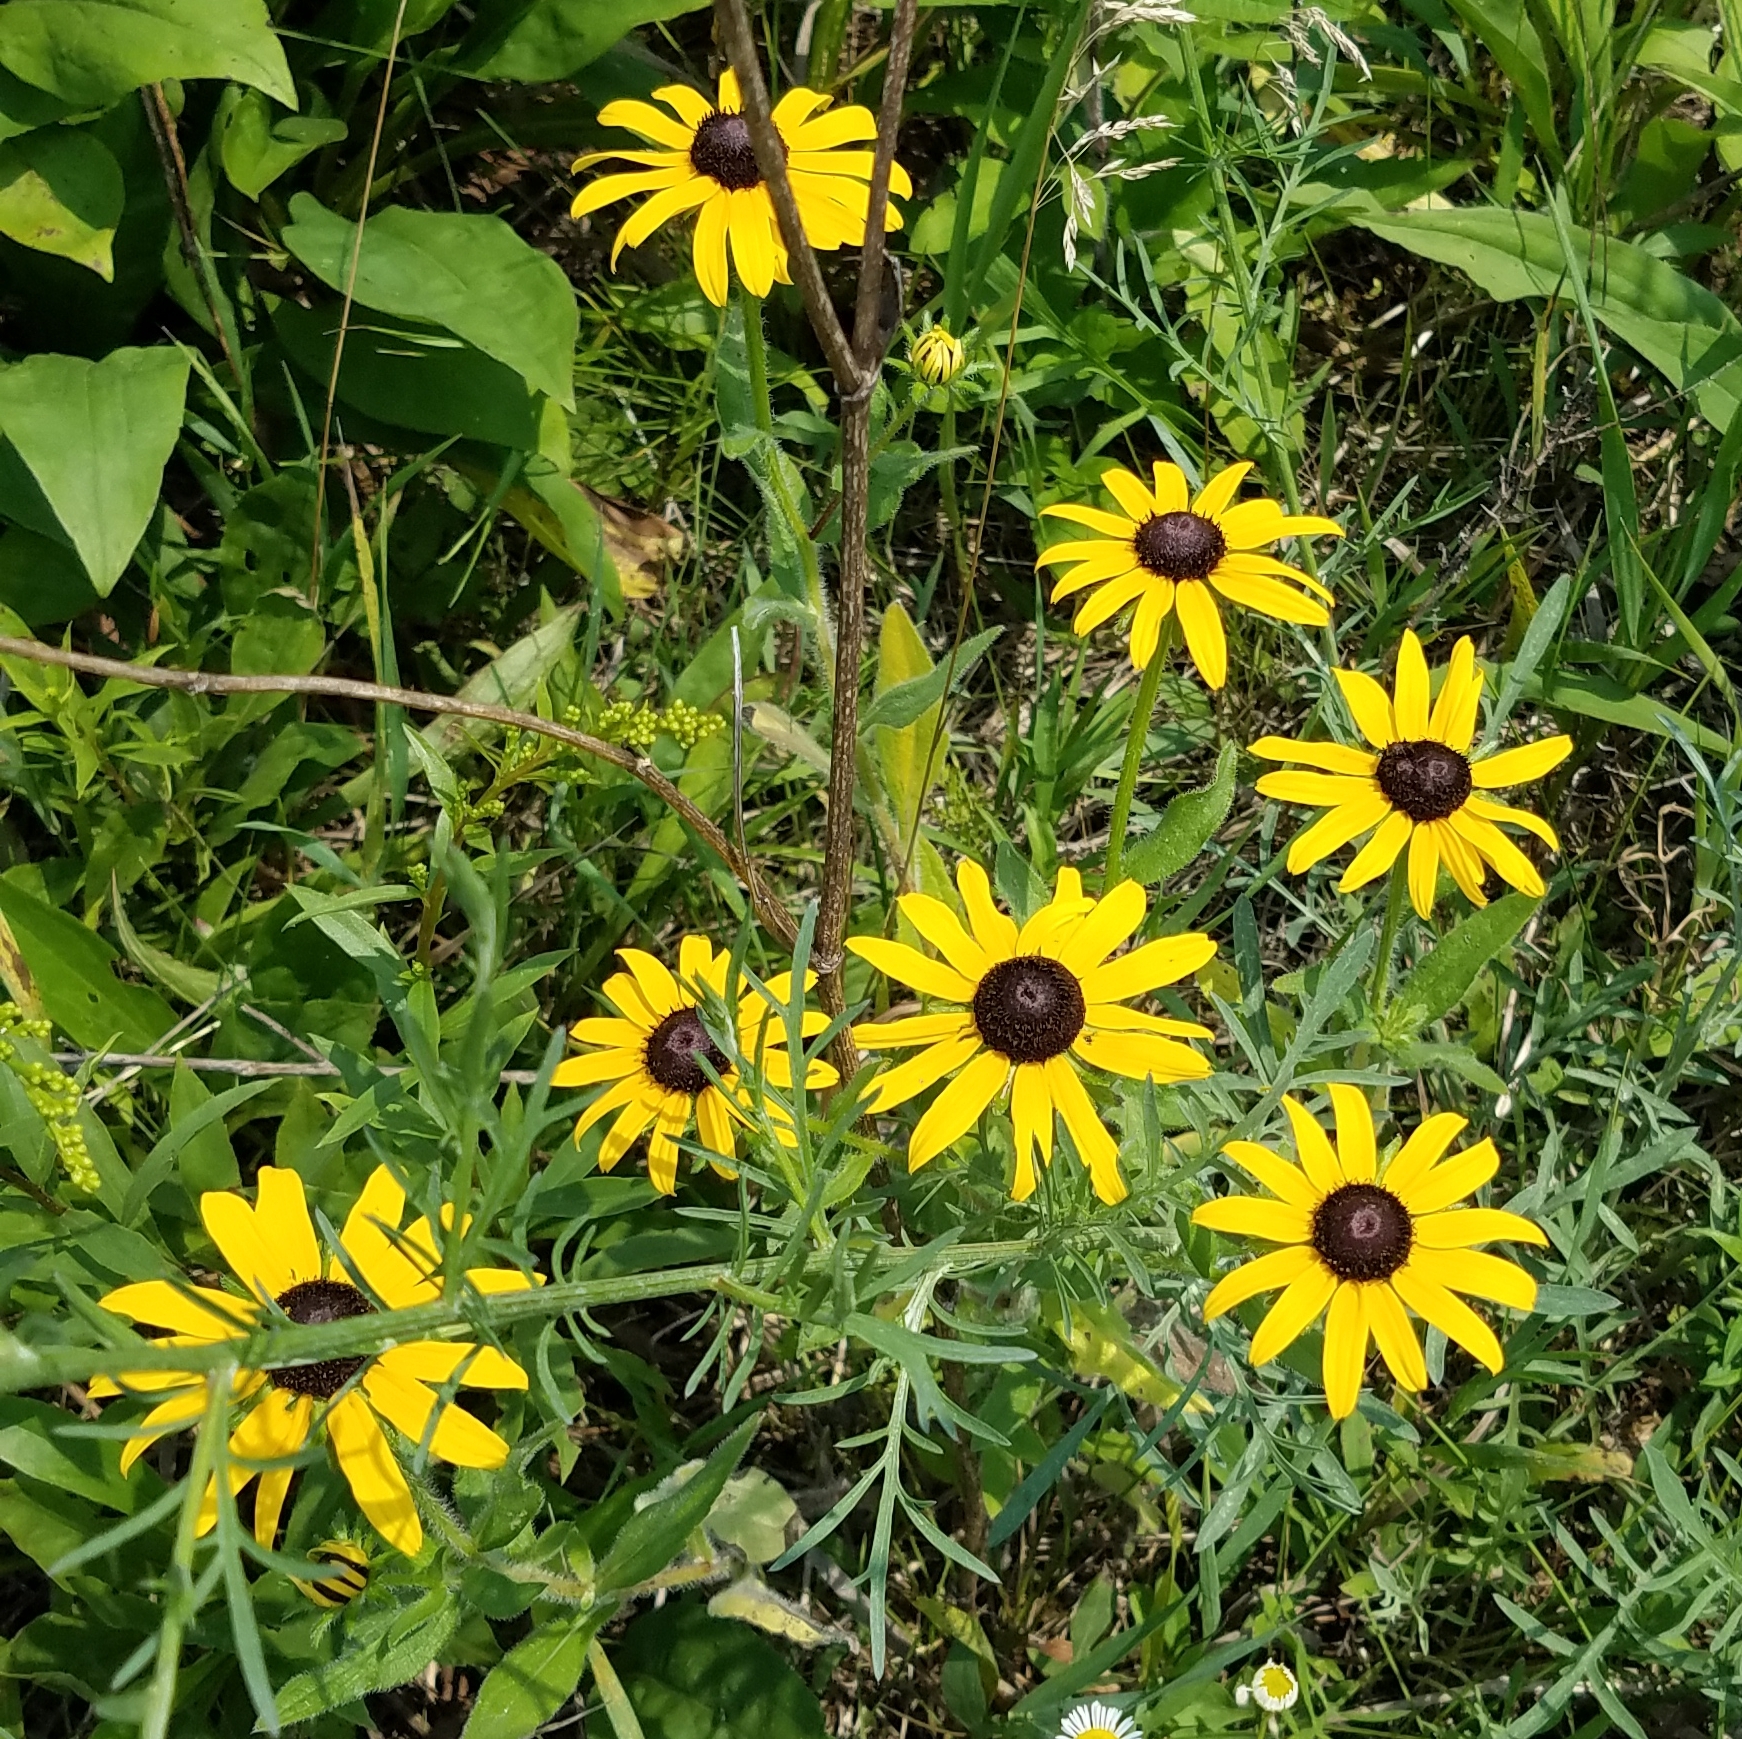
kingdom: Plantae
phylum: Tracheophyta
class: Magnoliopsida
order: Asterales
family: Asteraceae
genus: Rudbeckia
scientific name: Rudbeckia hirta
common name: Black-eyed-susan
